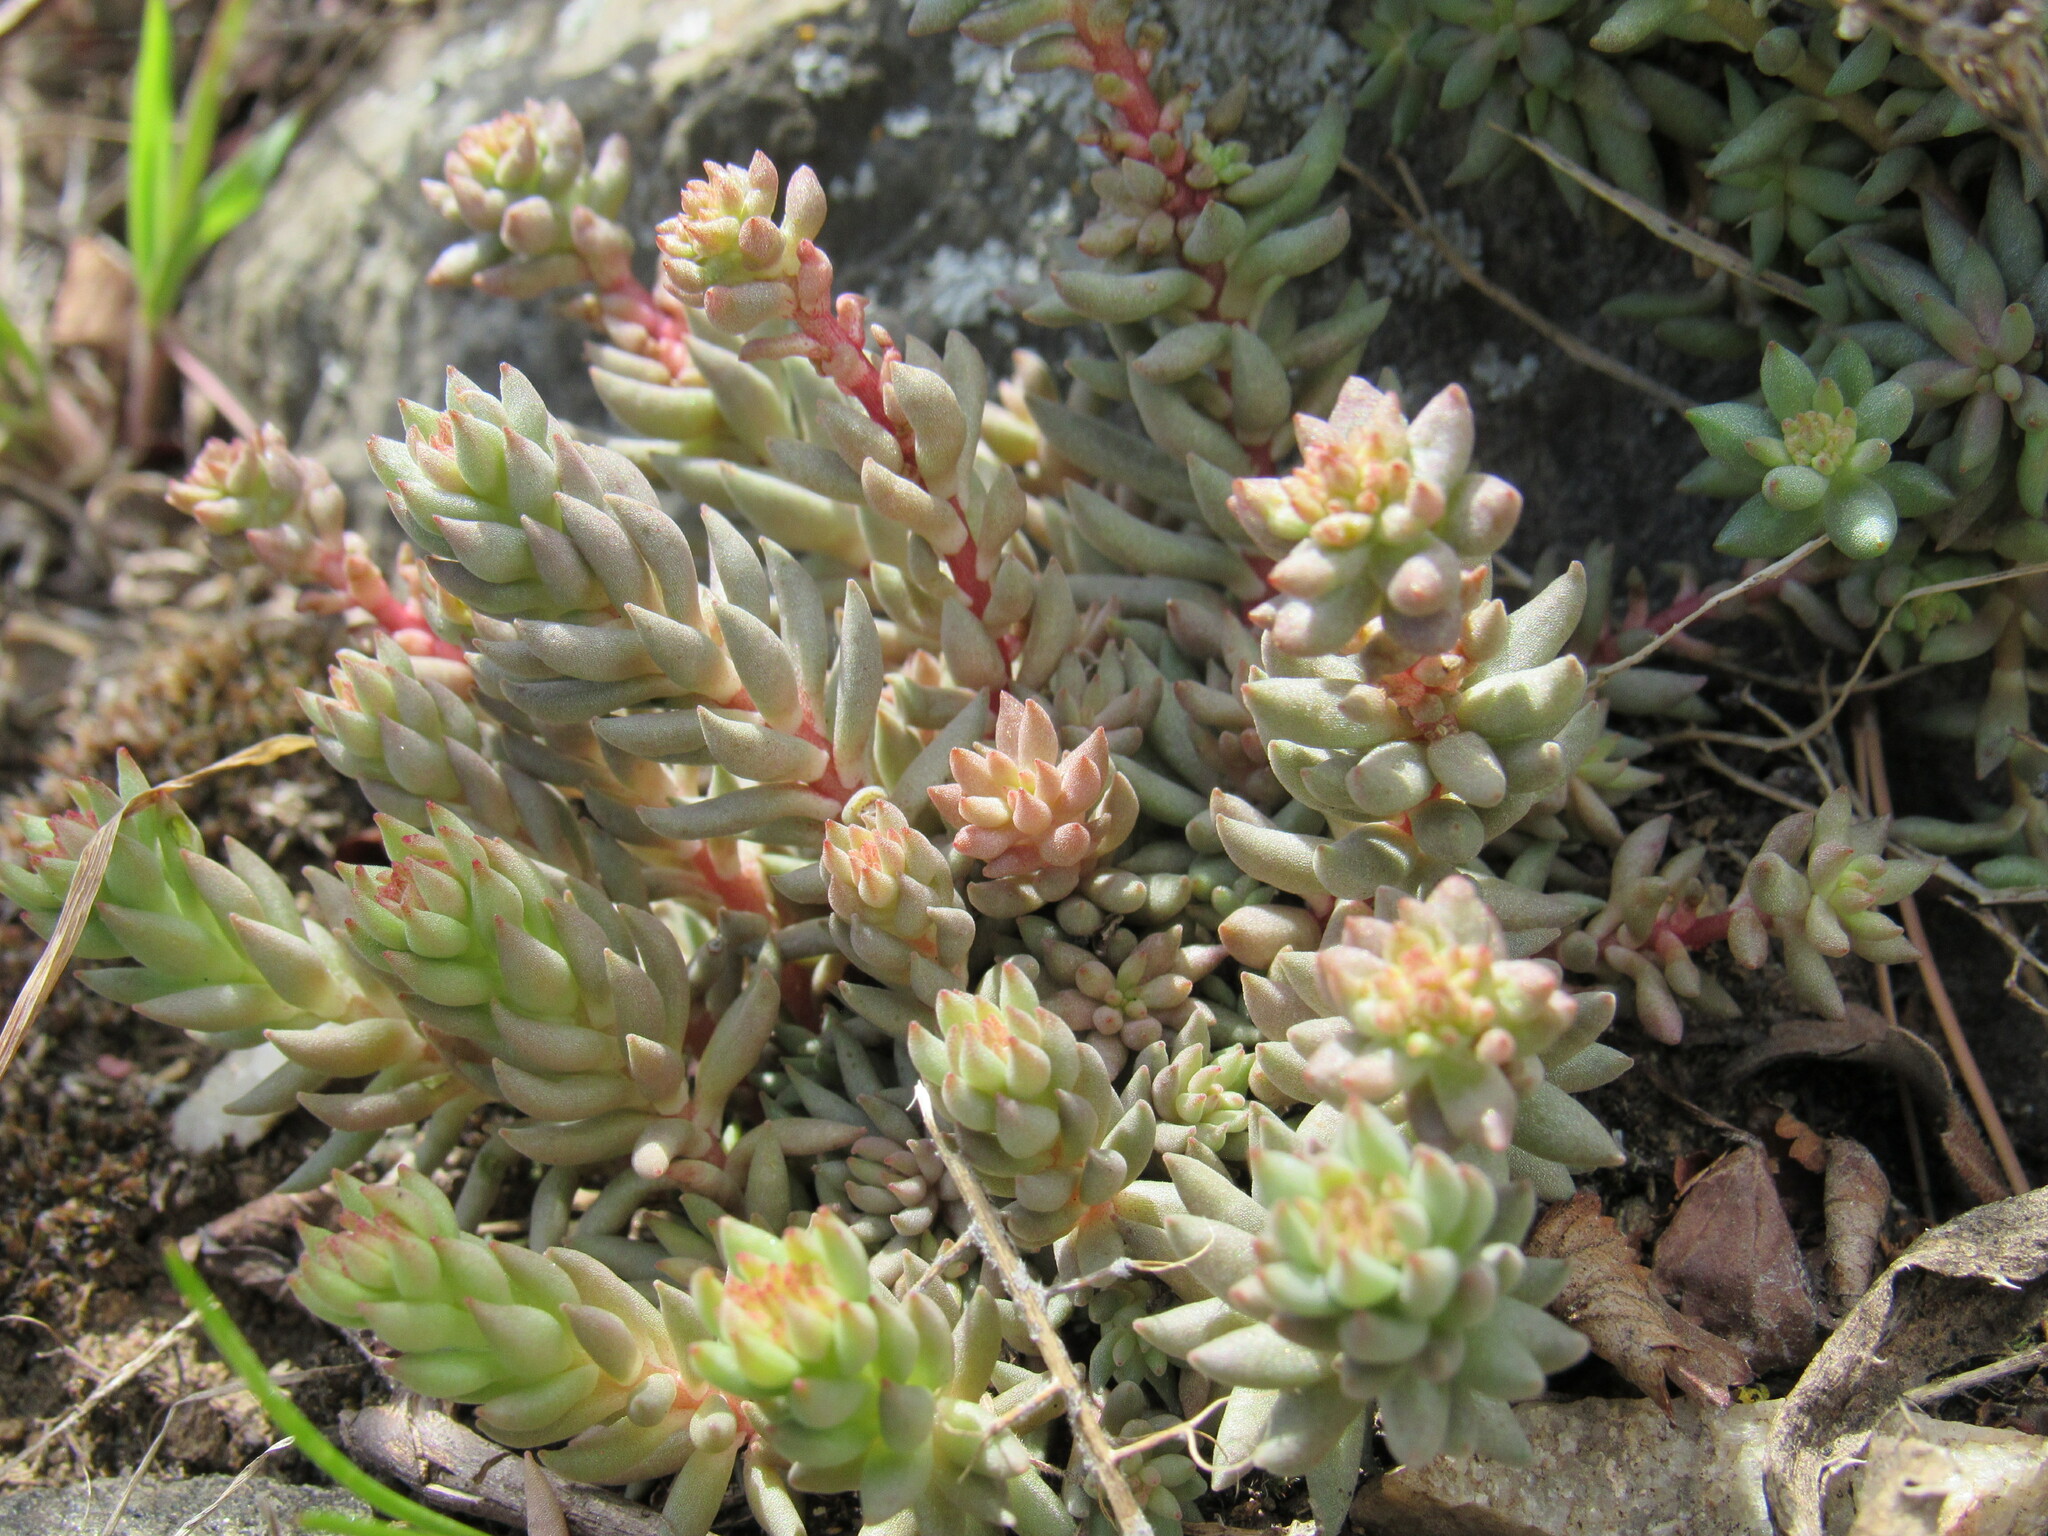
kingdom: Plantae
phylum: Tracheophyta
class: Magnoliopsida
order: Saxifragales
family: Crassulaceae
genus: Sedum
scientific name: Sedum lanceolatum
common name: Common stonecrop
